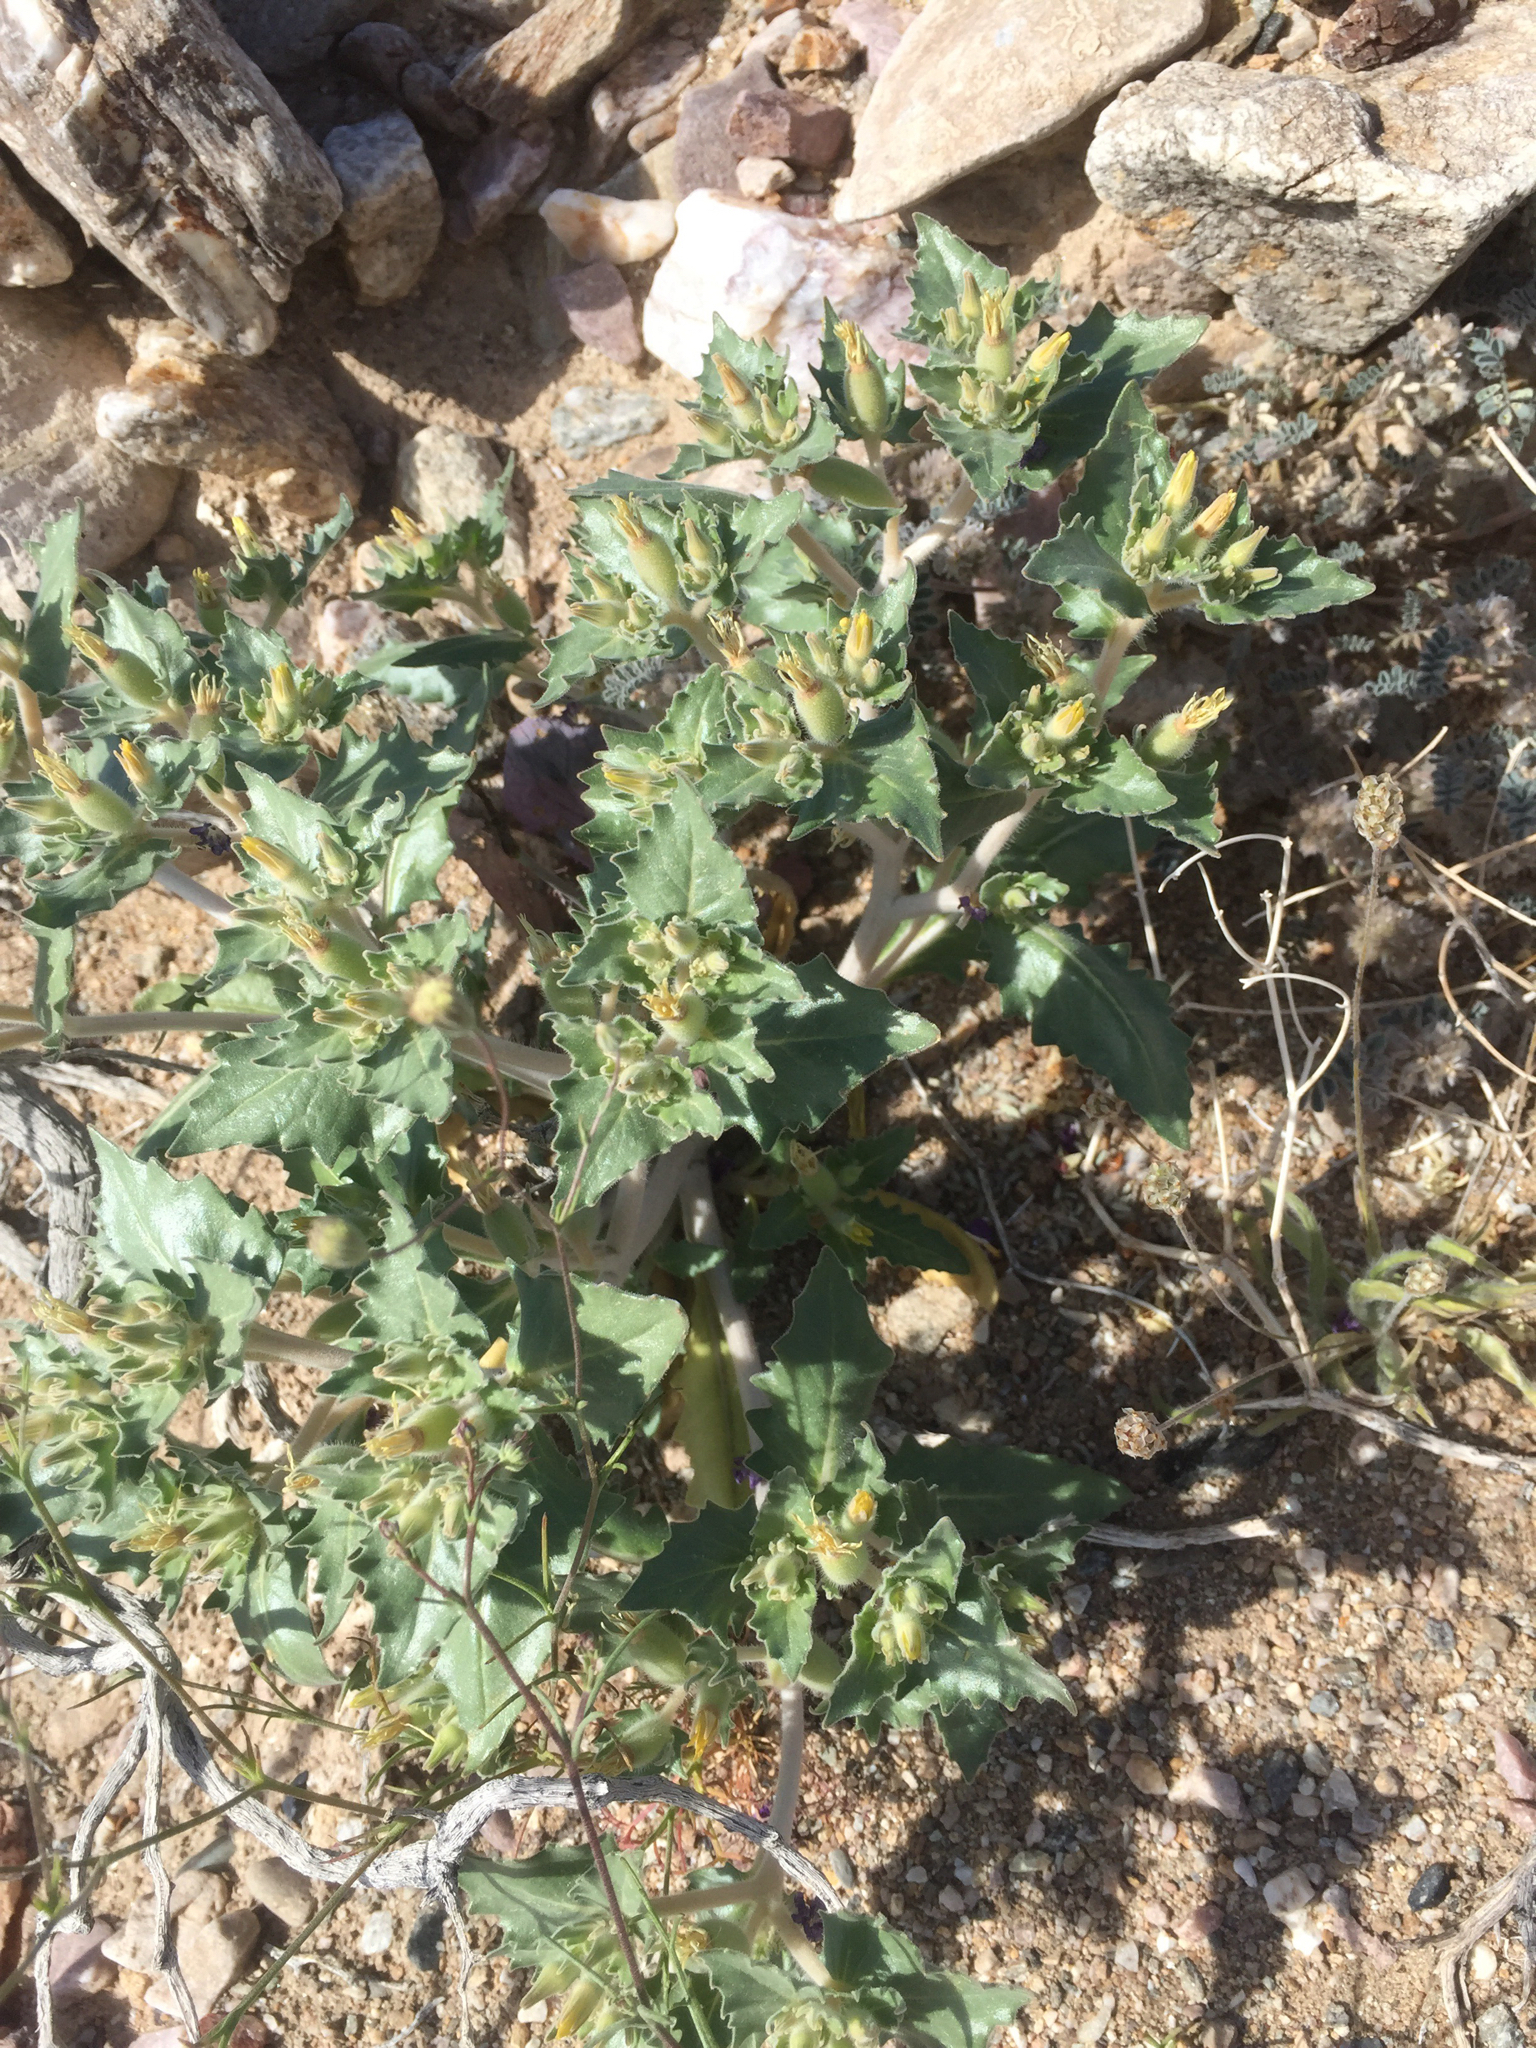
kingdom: Plantae
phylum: Tracheophyta
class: Magnoliopsida
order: Cornales
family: Loasaceae
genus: Mentzelia
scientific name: Mentzelia reflexa
